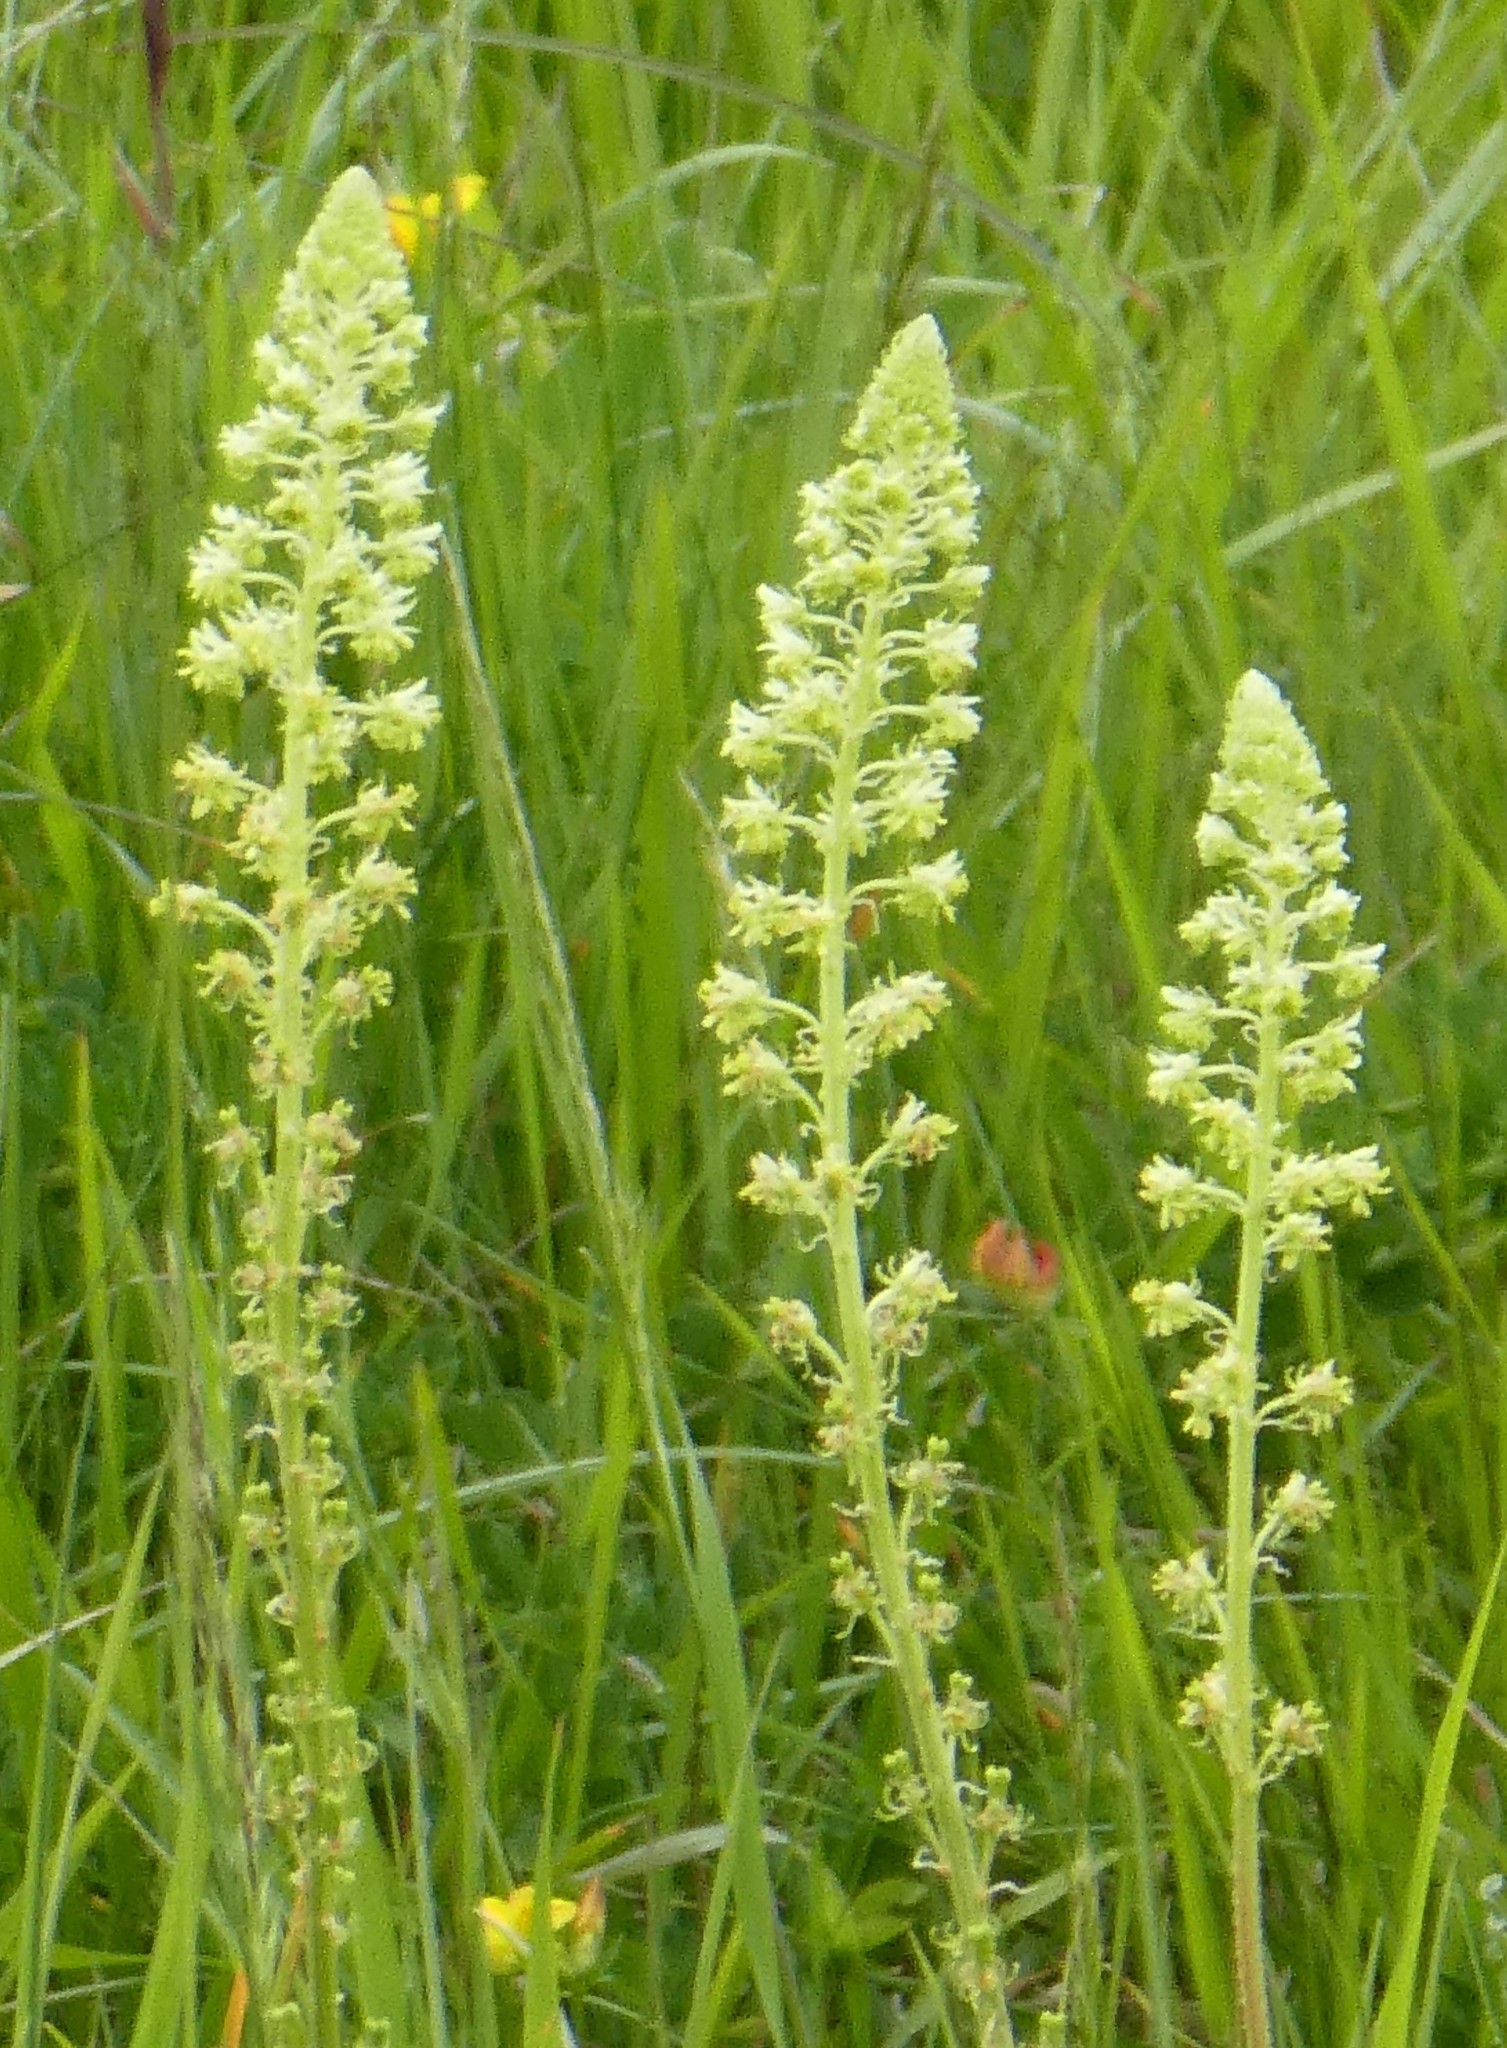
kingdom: Plantae
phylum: Tracheophyta
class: Magnoliopsida
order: Brassicales
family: Resedaceae
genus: Reseda
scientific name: Reseda lutea
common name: Wild mignonette
